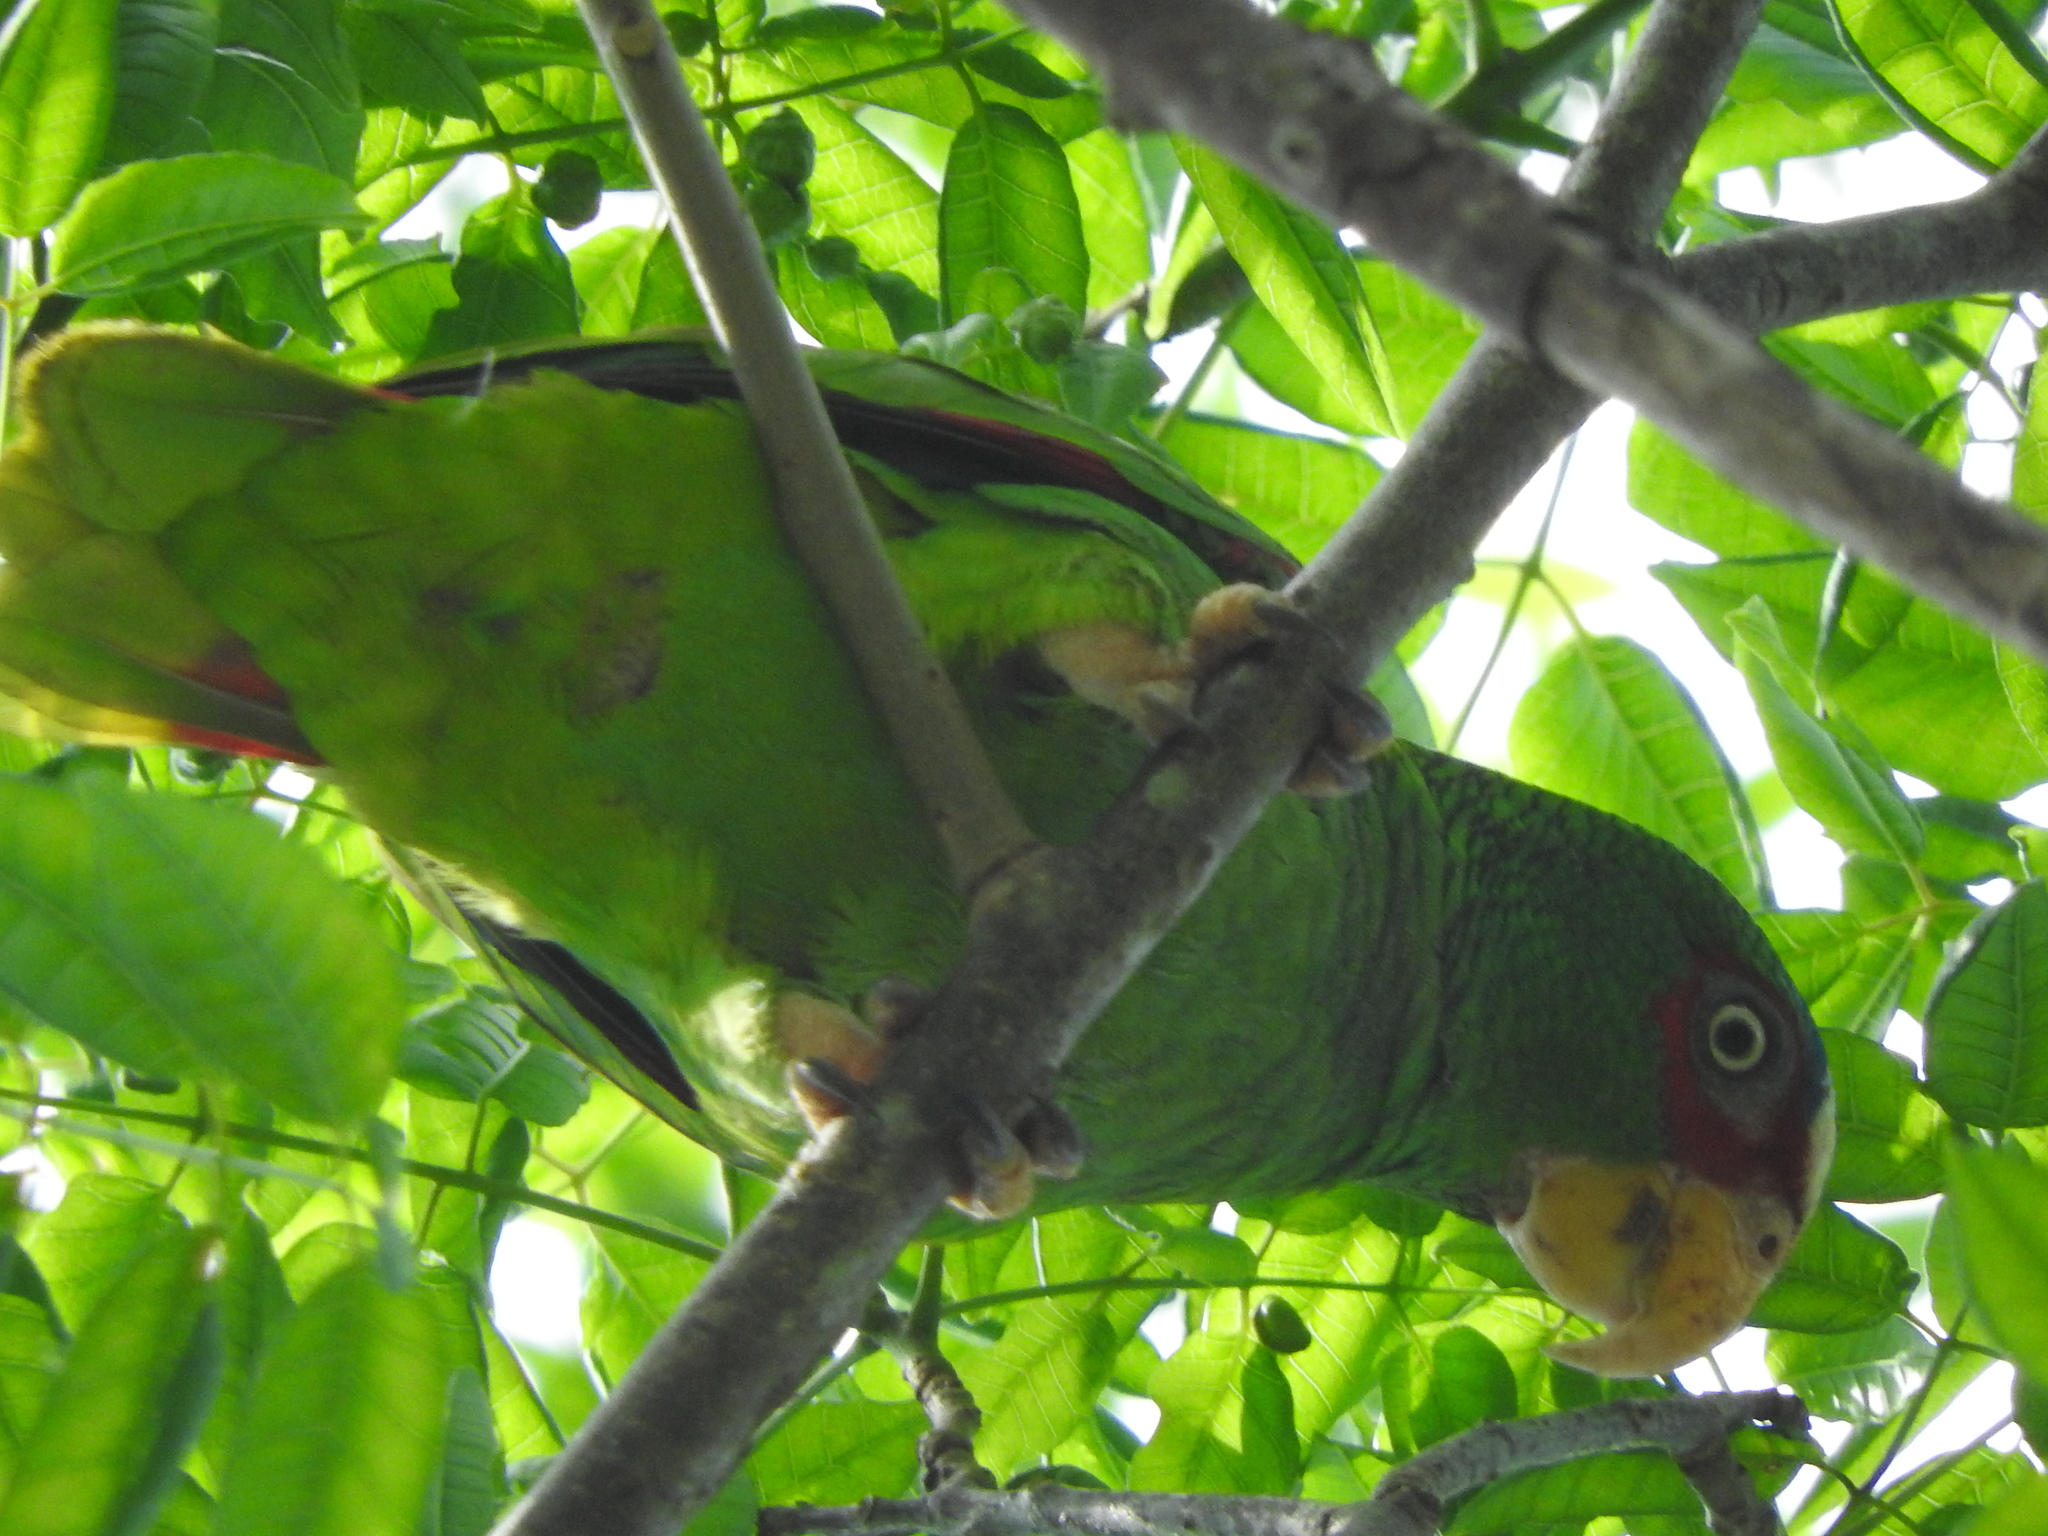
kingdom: Animalia
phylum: Chordata
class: Aves
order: Psittaciformes
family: Psittacidae
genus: Amazona
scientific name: Amazona albifrons
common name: White-fronted amazon
